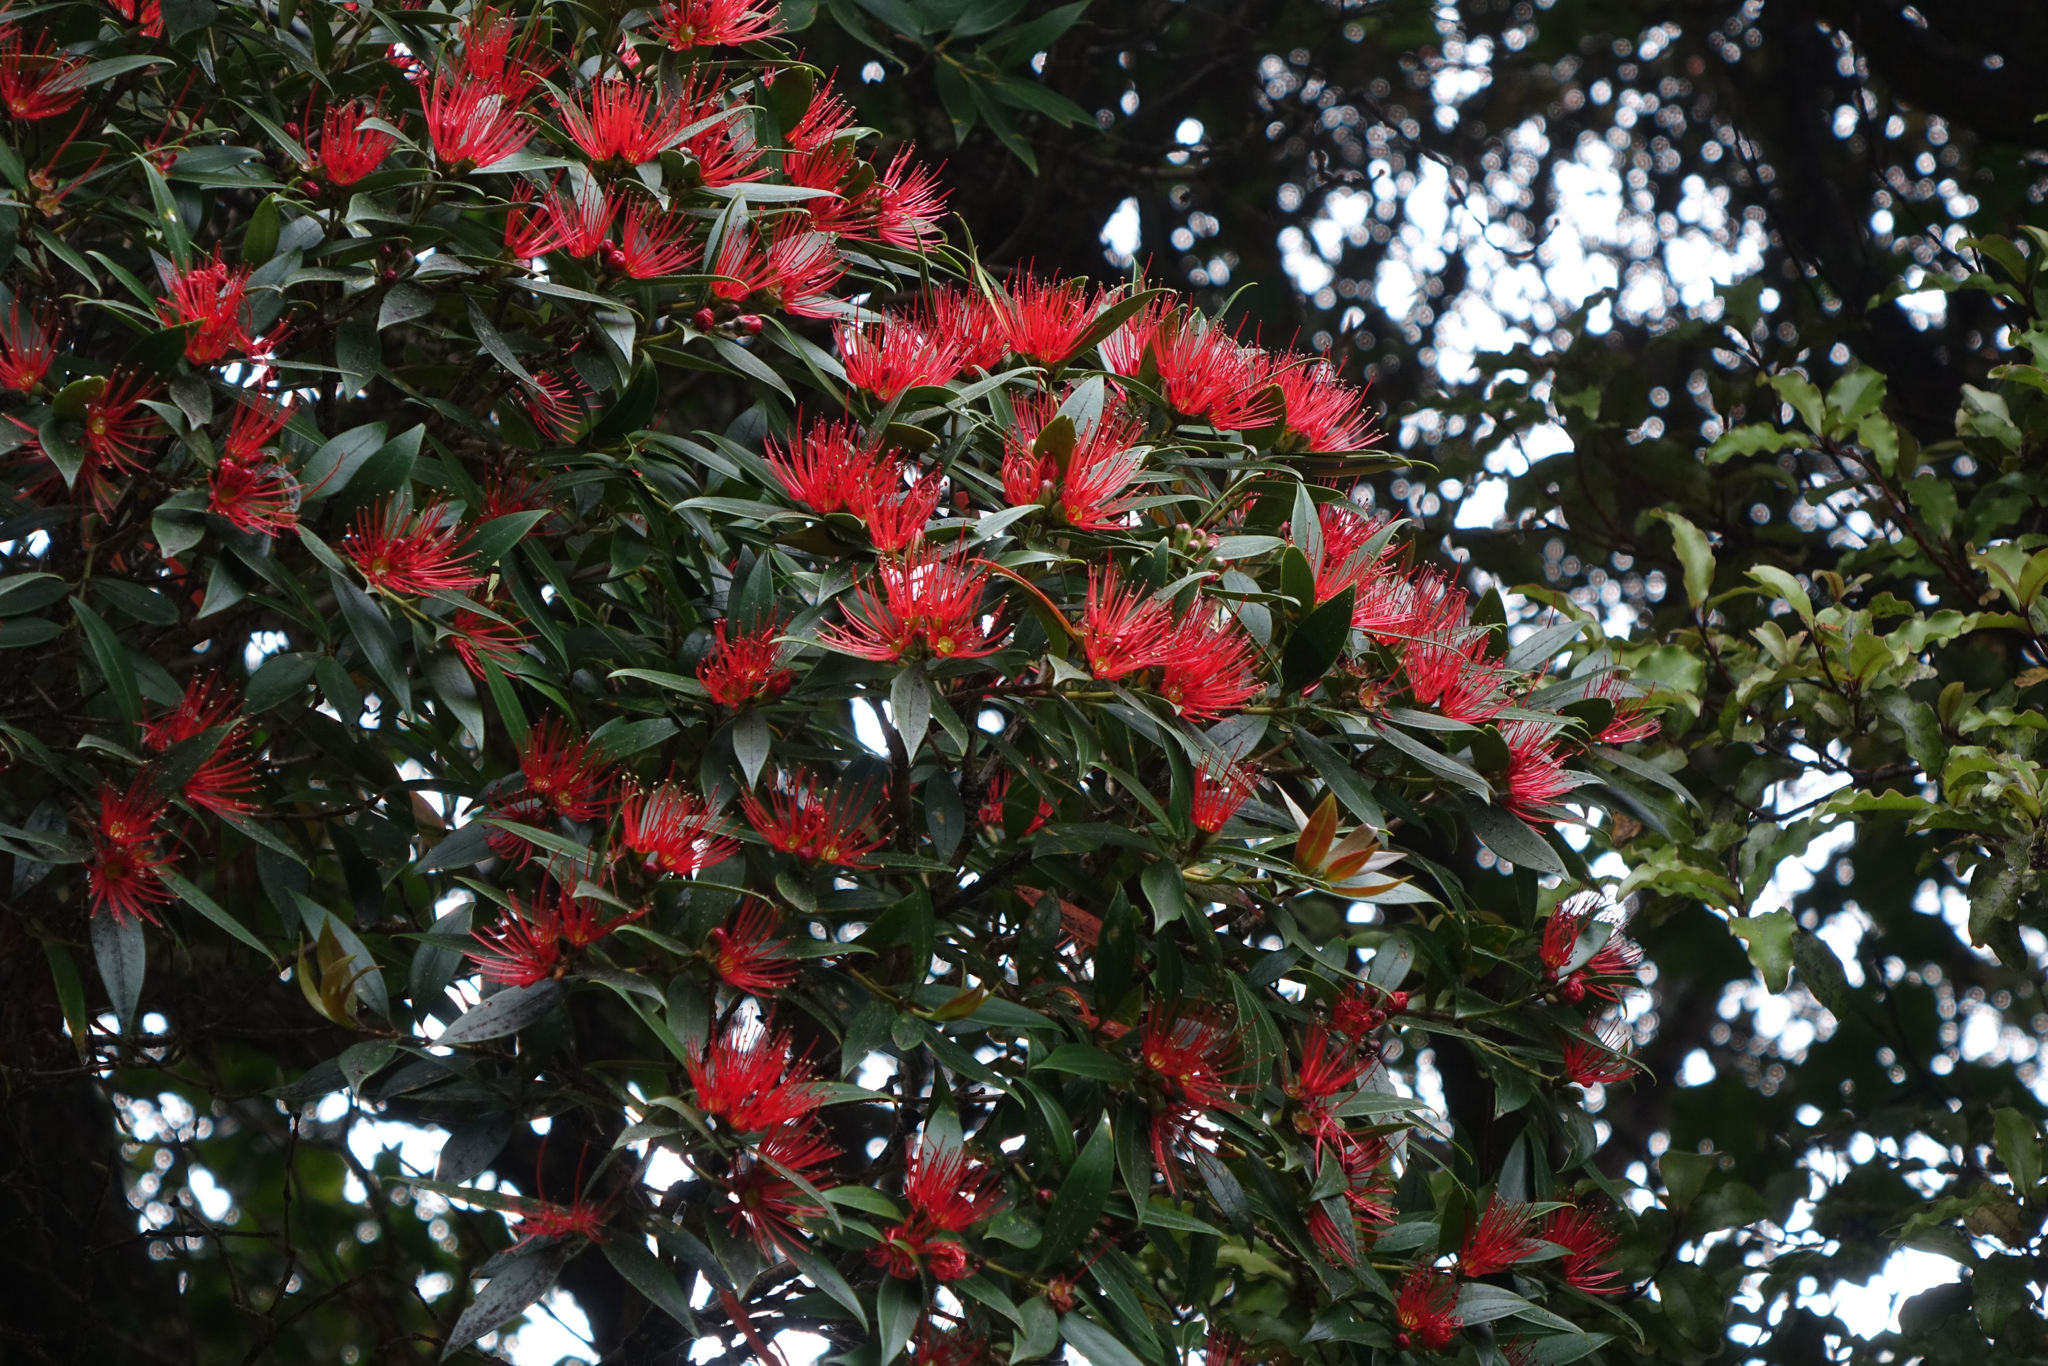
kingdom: Plantae
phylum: Tracheophyta
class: Magnoliopsida
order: Myrtales
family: Myrtaceae
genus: Metrosideros
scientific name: Metrosideros umbellata
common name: Southern rata
